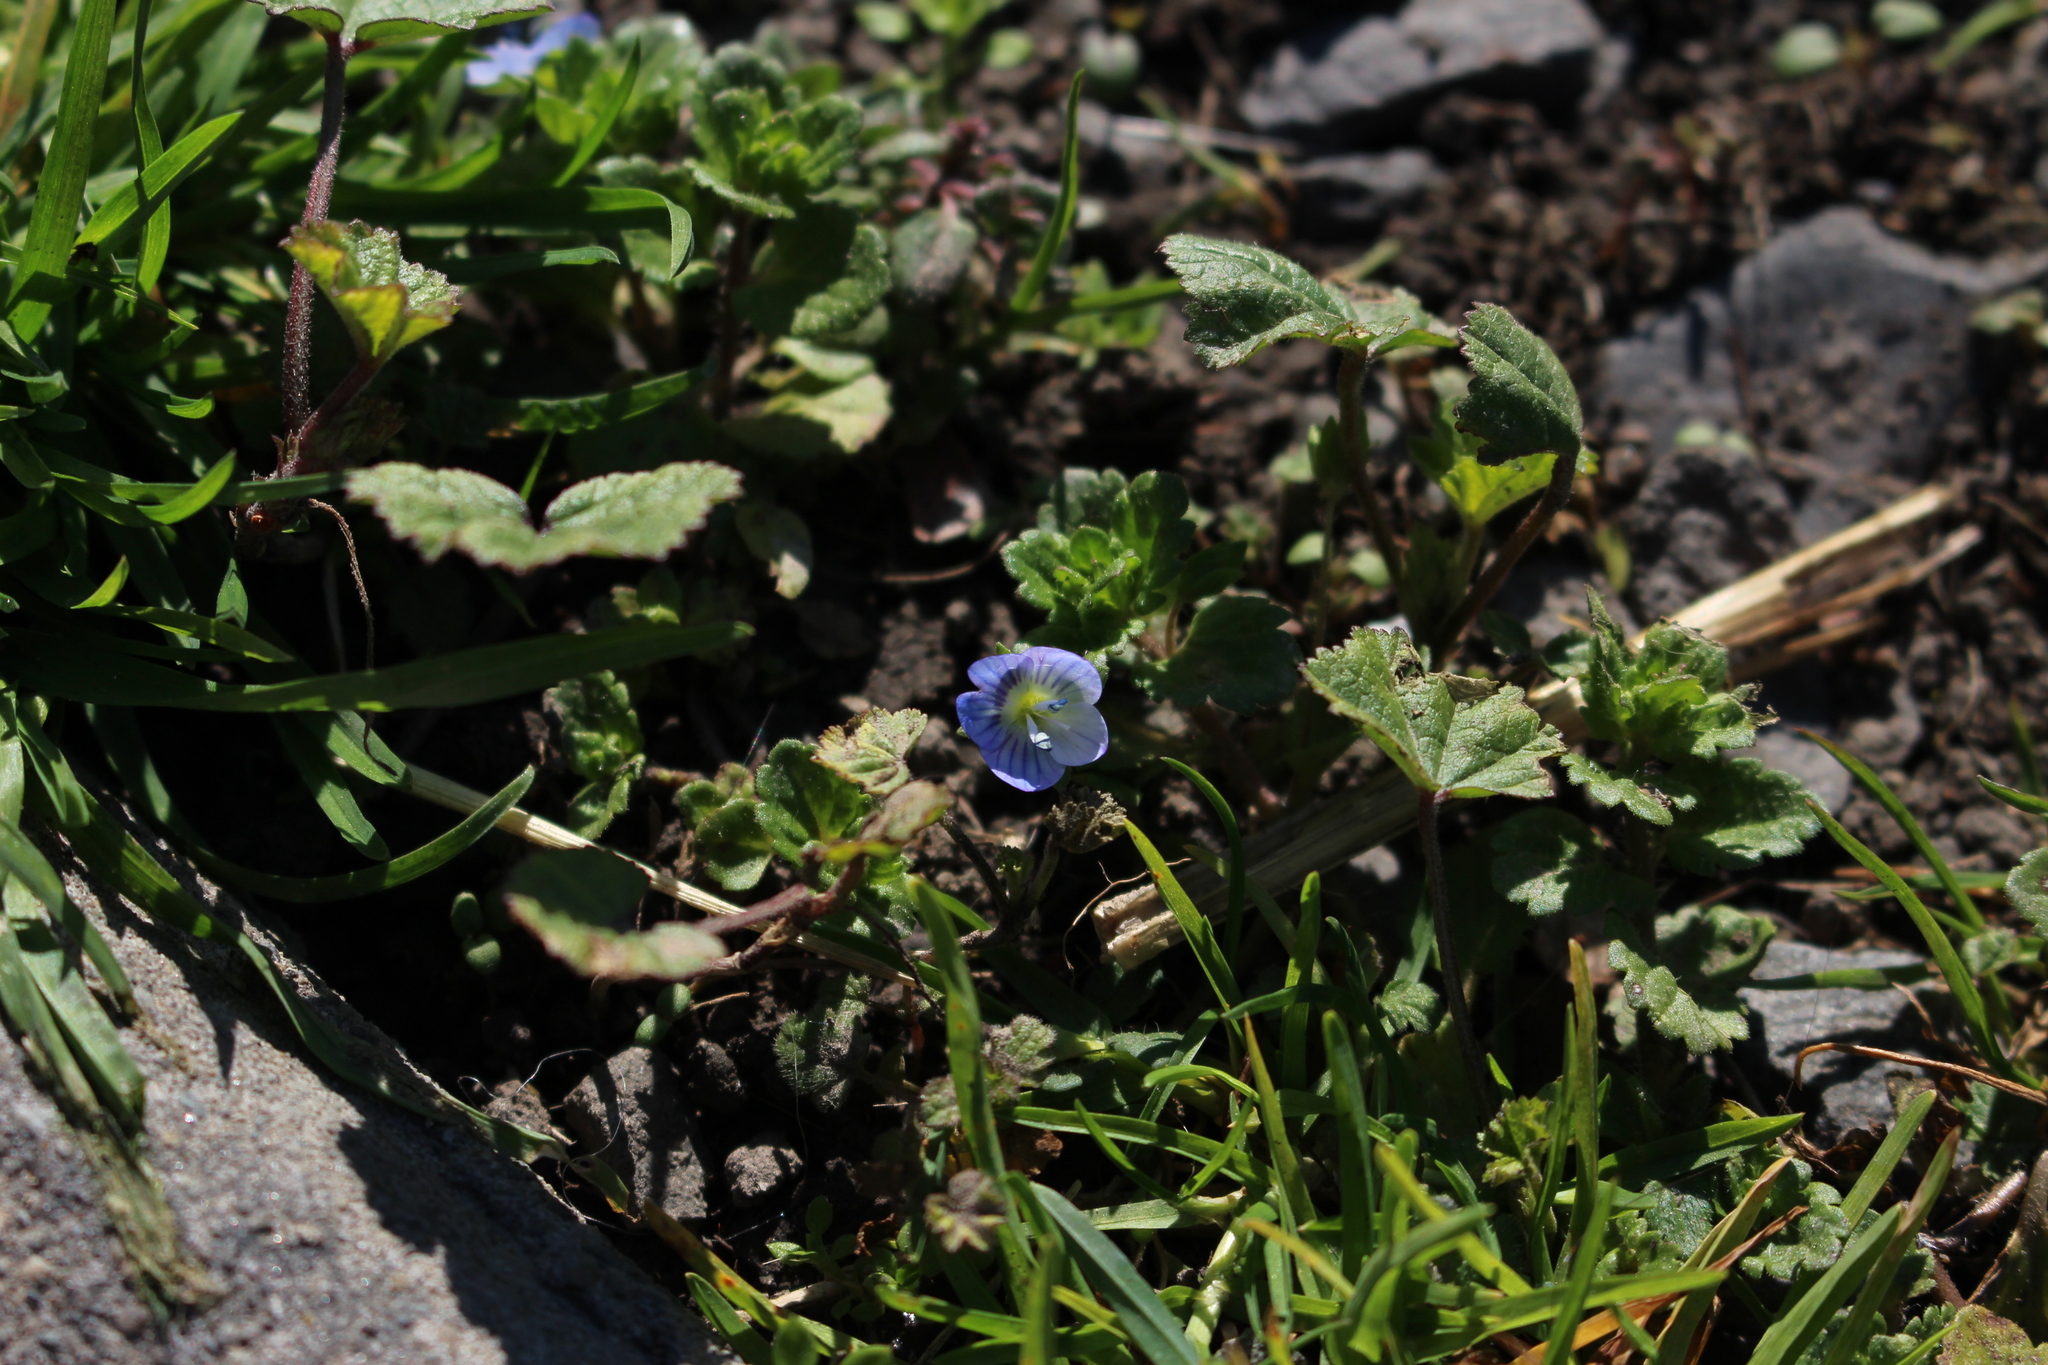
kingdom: Plantae
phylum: Tracheophyta
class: Magnoliopsida
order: Lamiales
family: Plantaginaceae
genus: Veronica
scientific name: Veronica persica
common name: Common field-speedwell
